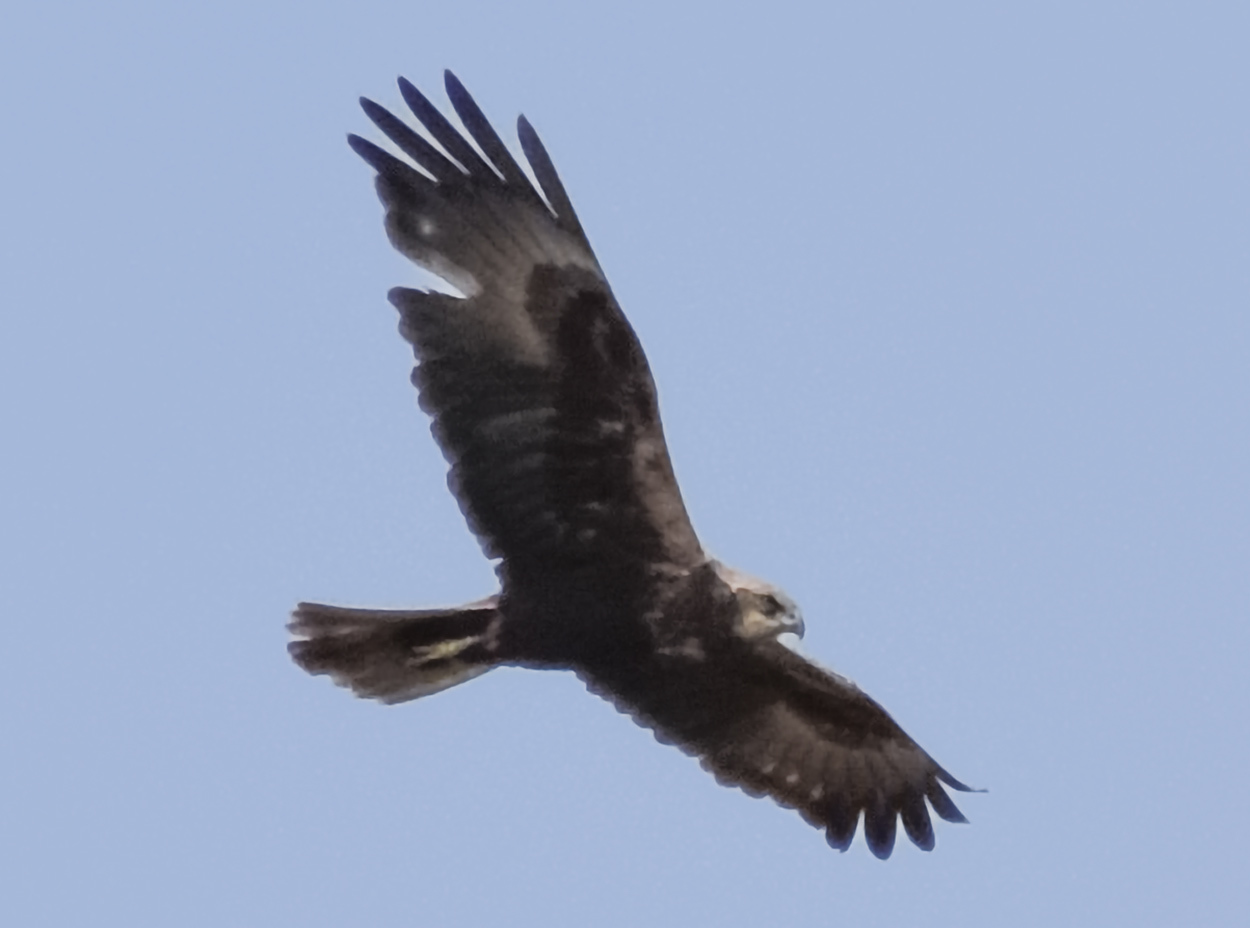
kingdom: Animalia
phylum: Chordata
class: Aves
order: Accipitriformes
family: Accipitridae
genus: Circus
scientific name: Circus aeruginosus
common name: Western marsh harrier
